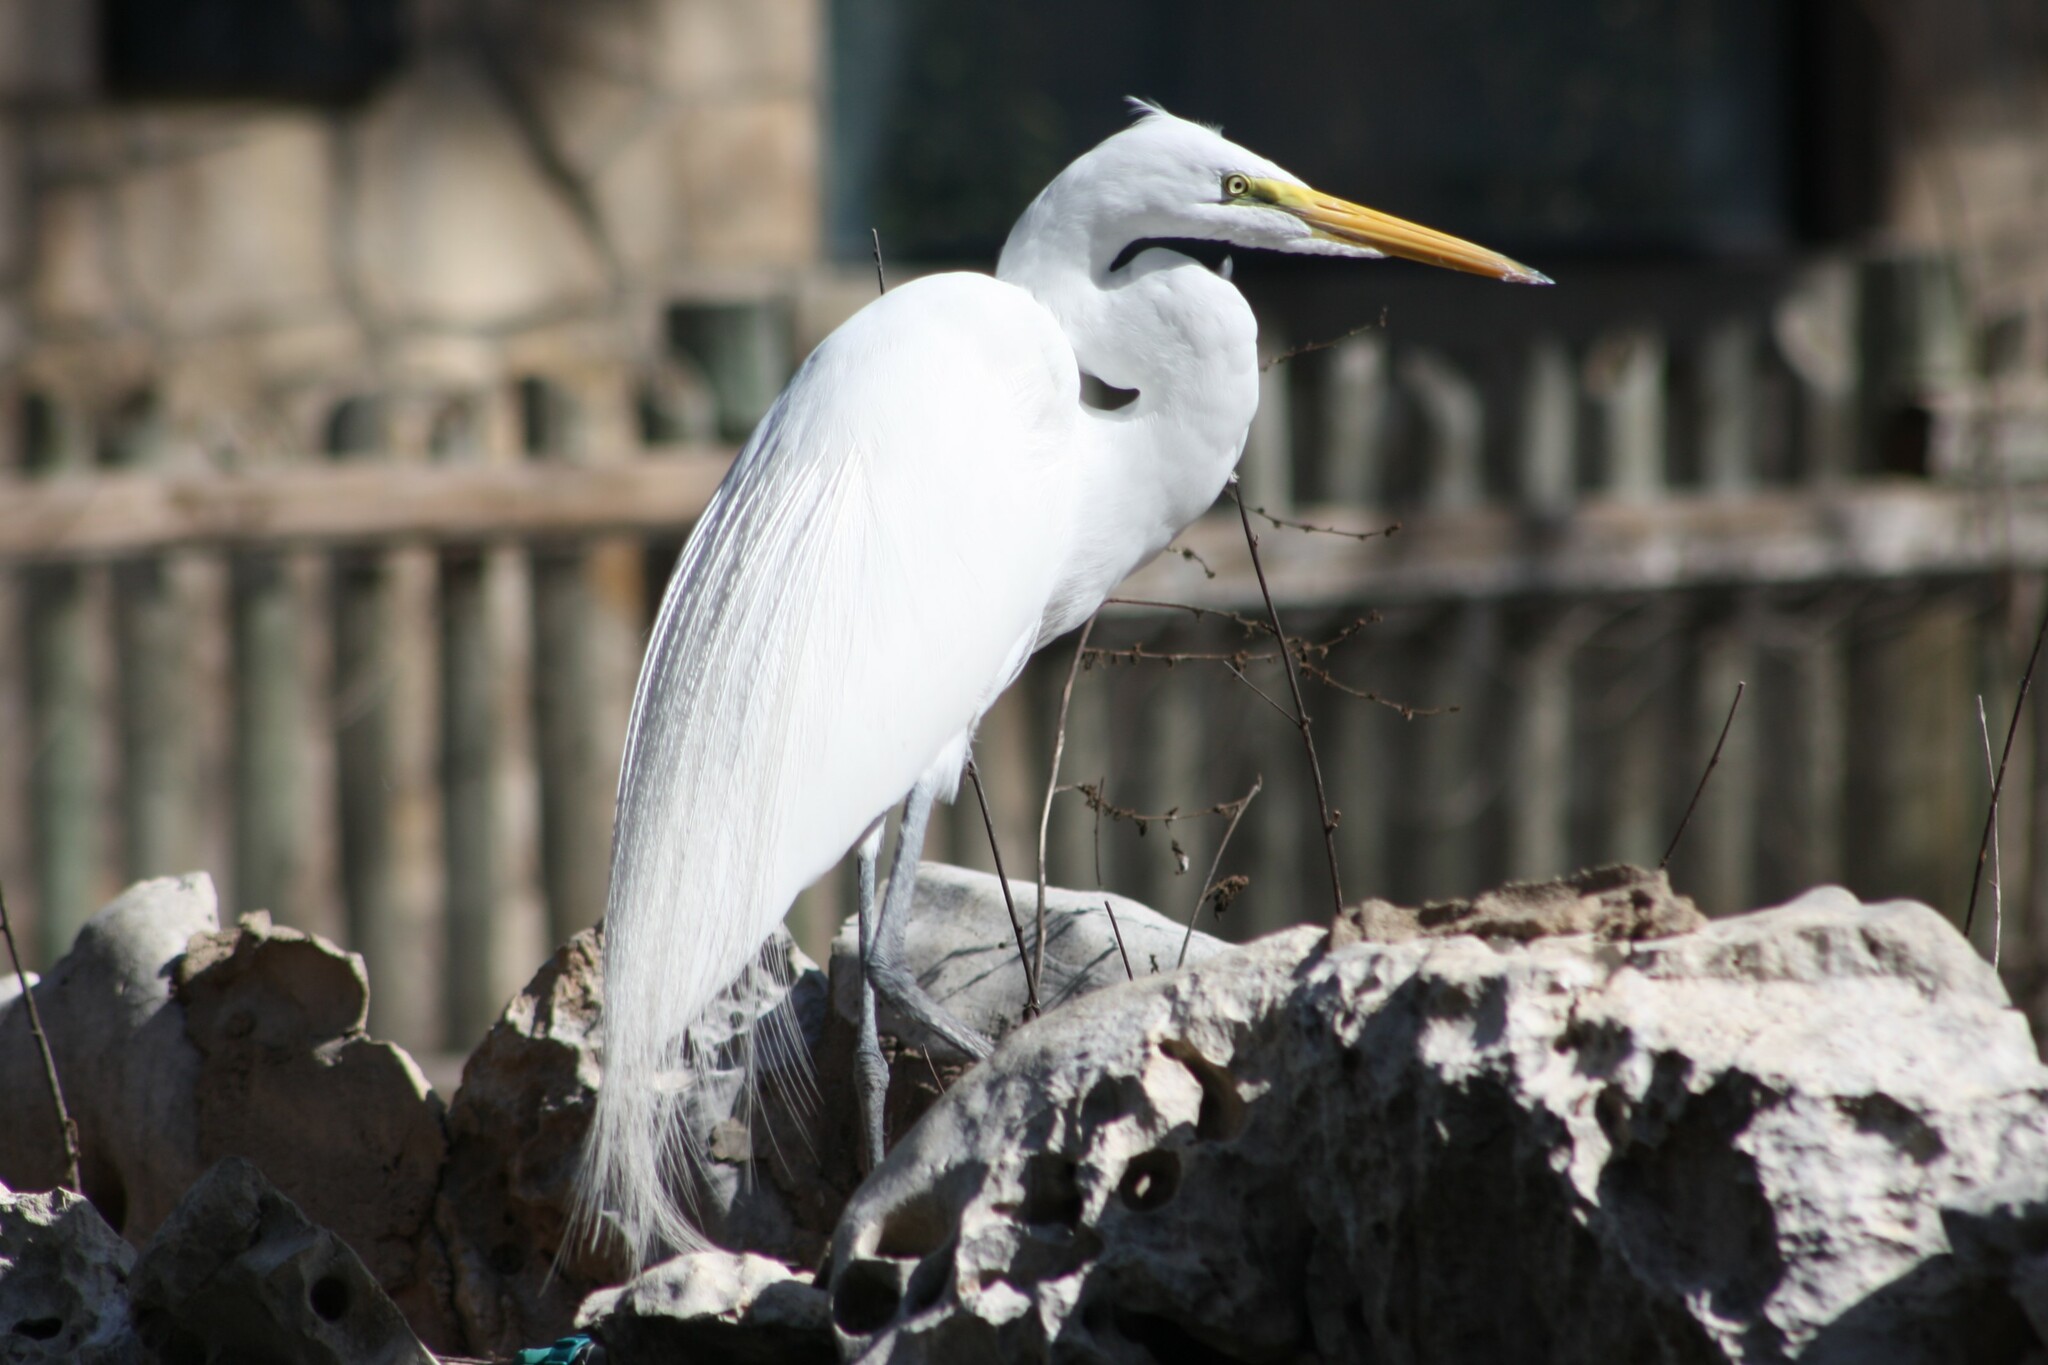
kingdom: Animalia
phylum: Chordata
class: Aves
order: Pelecaniformes
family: Ardeidae
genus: Ardea
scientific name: Ardea alba
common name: Great egret
